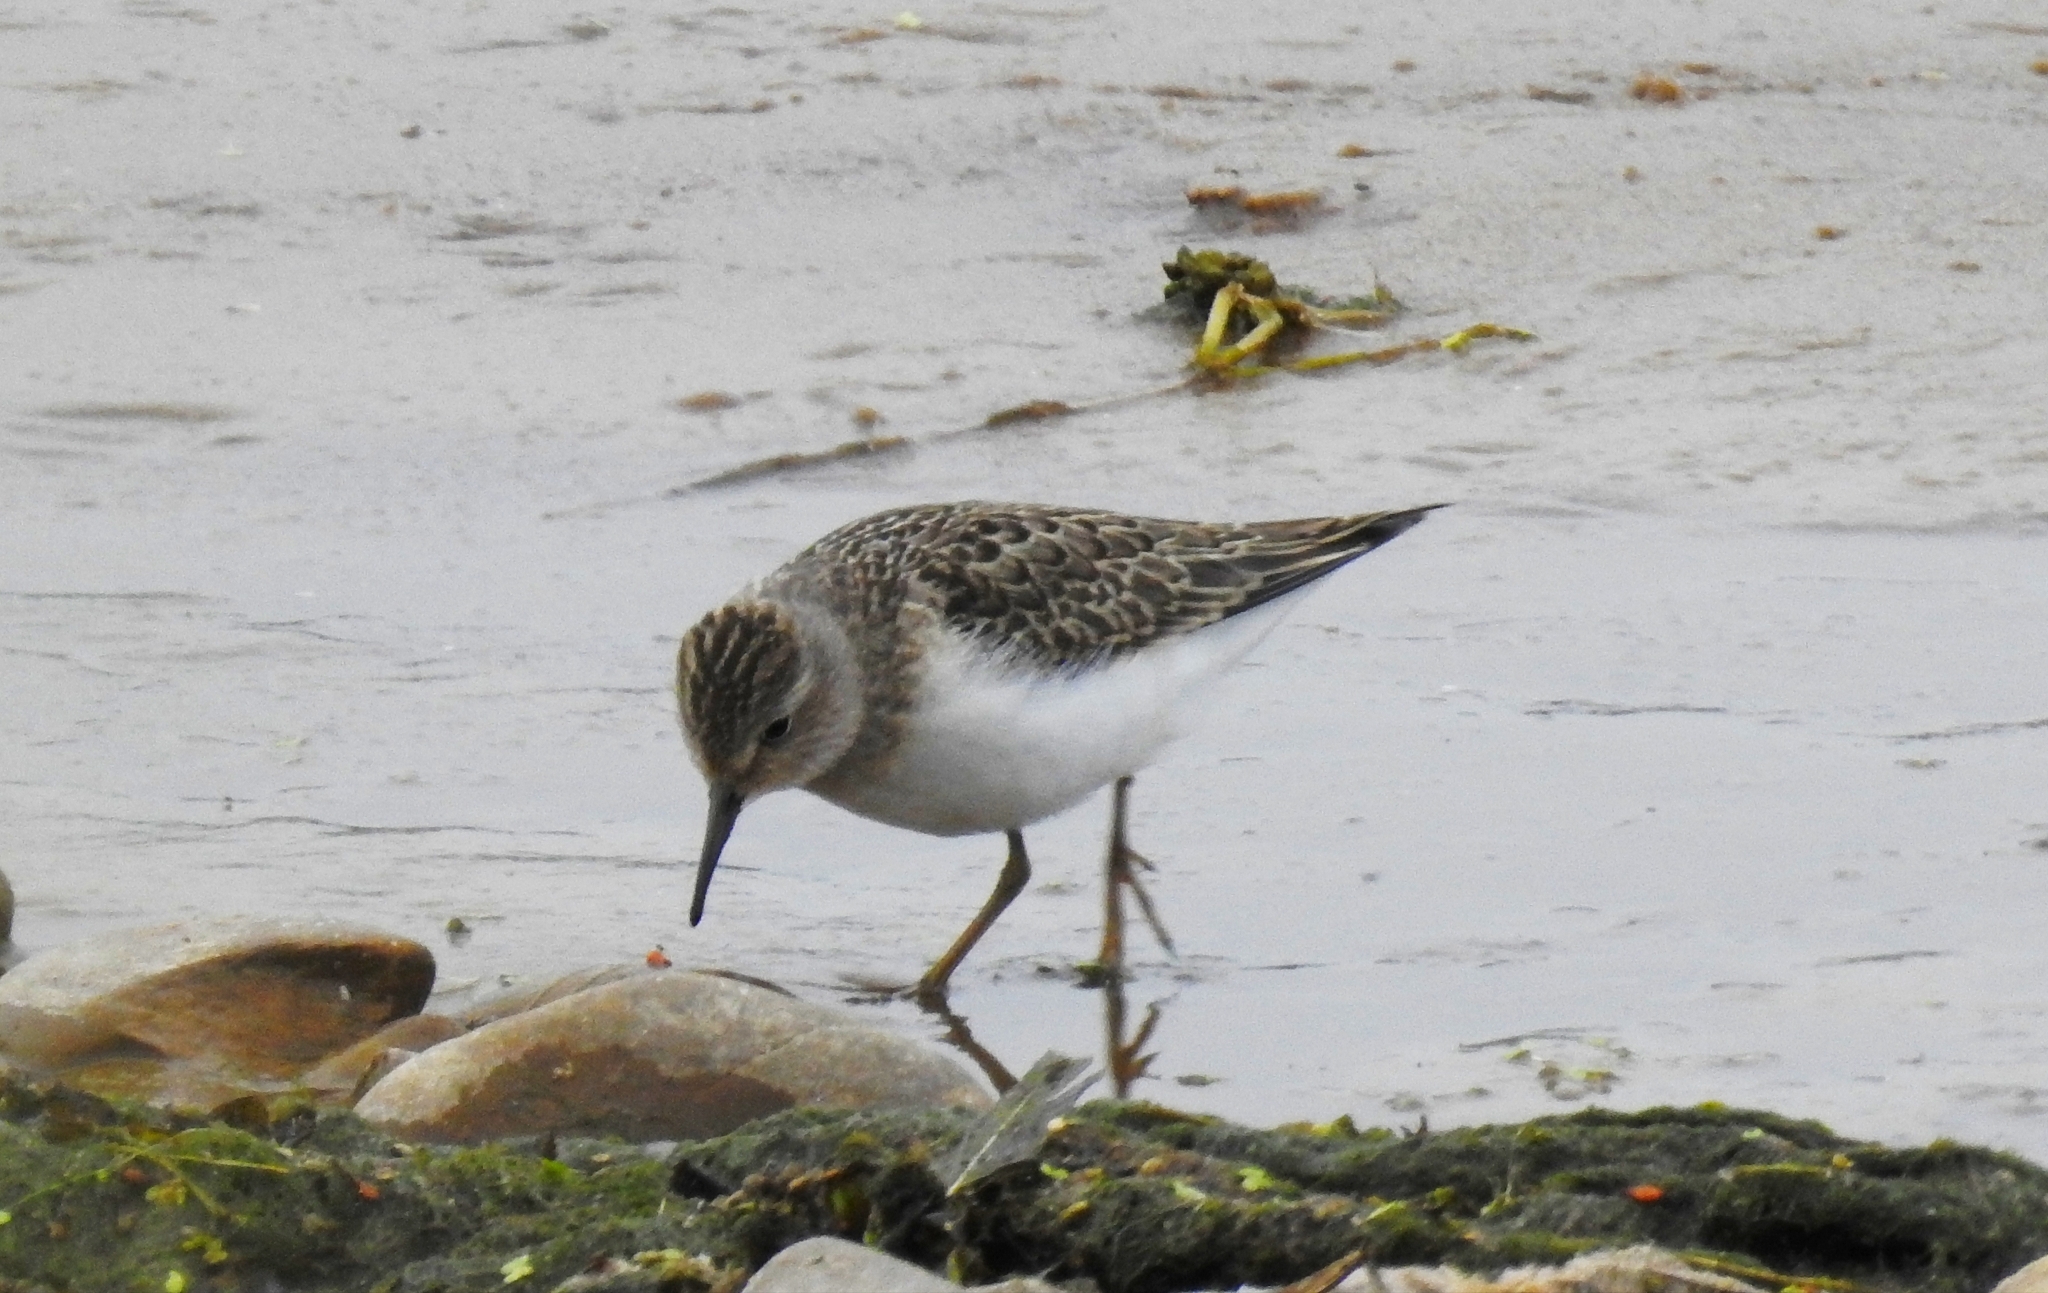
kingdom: Animalia
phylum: Chordata
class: Aves
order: Charadriiformes
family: Scolopacidae
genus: Calidris
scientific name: Calidris temminckii
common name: Temminck's stint
